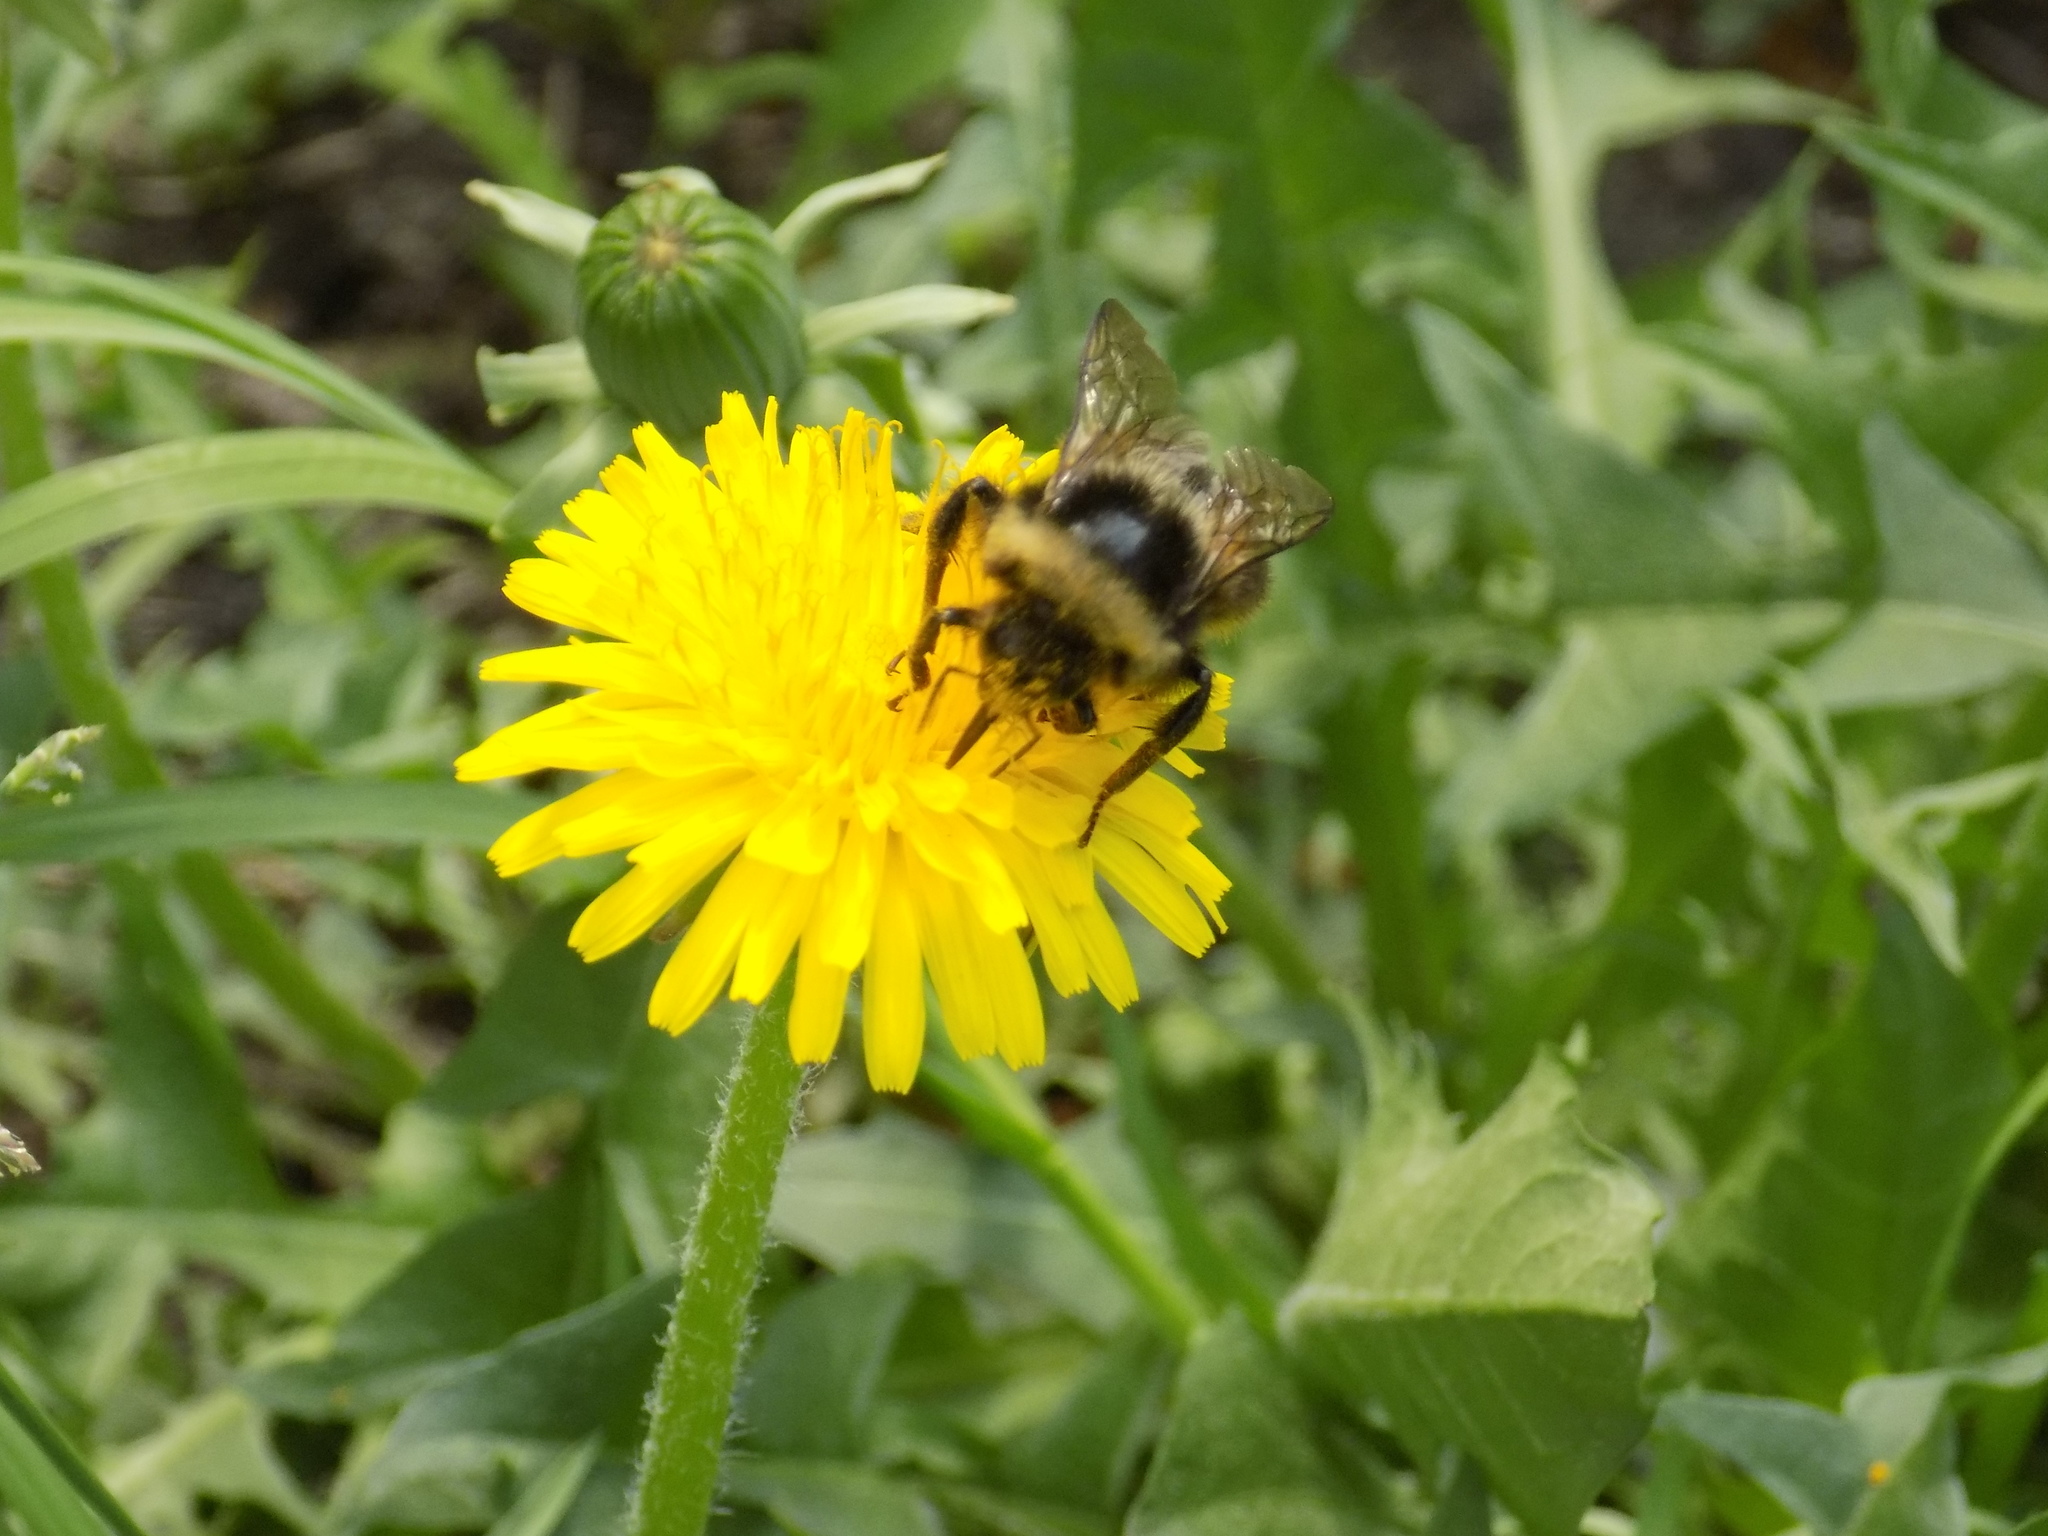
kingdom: Animalia
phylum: Arthropoda
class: Insecta
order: Hymenoptera
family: Apidae
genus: Bombus
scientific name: Bombus sichelii
